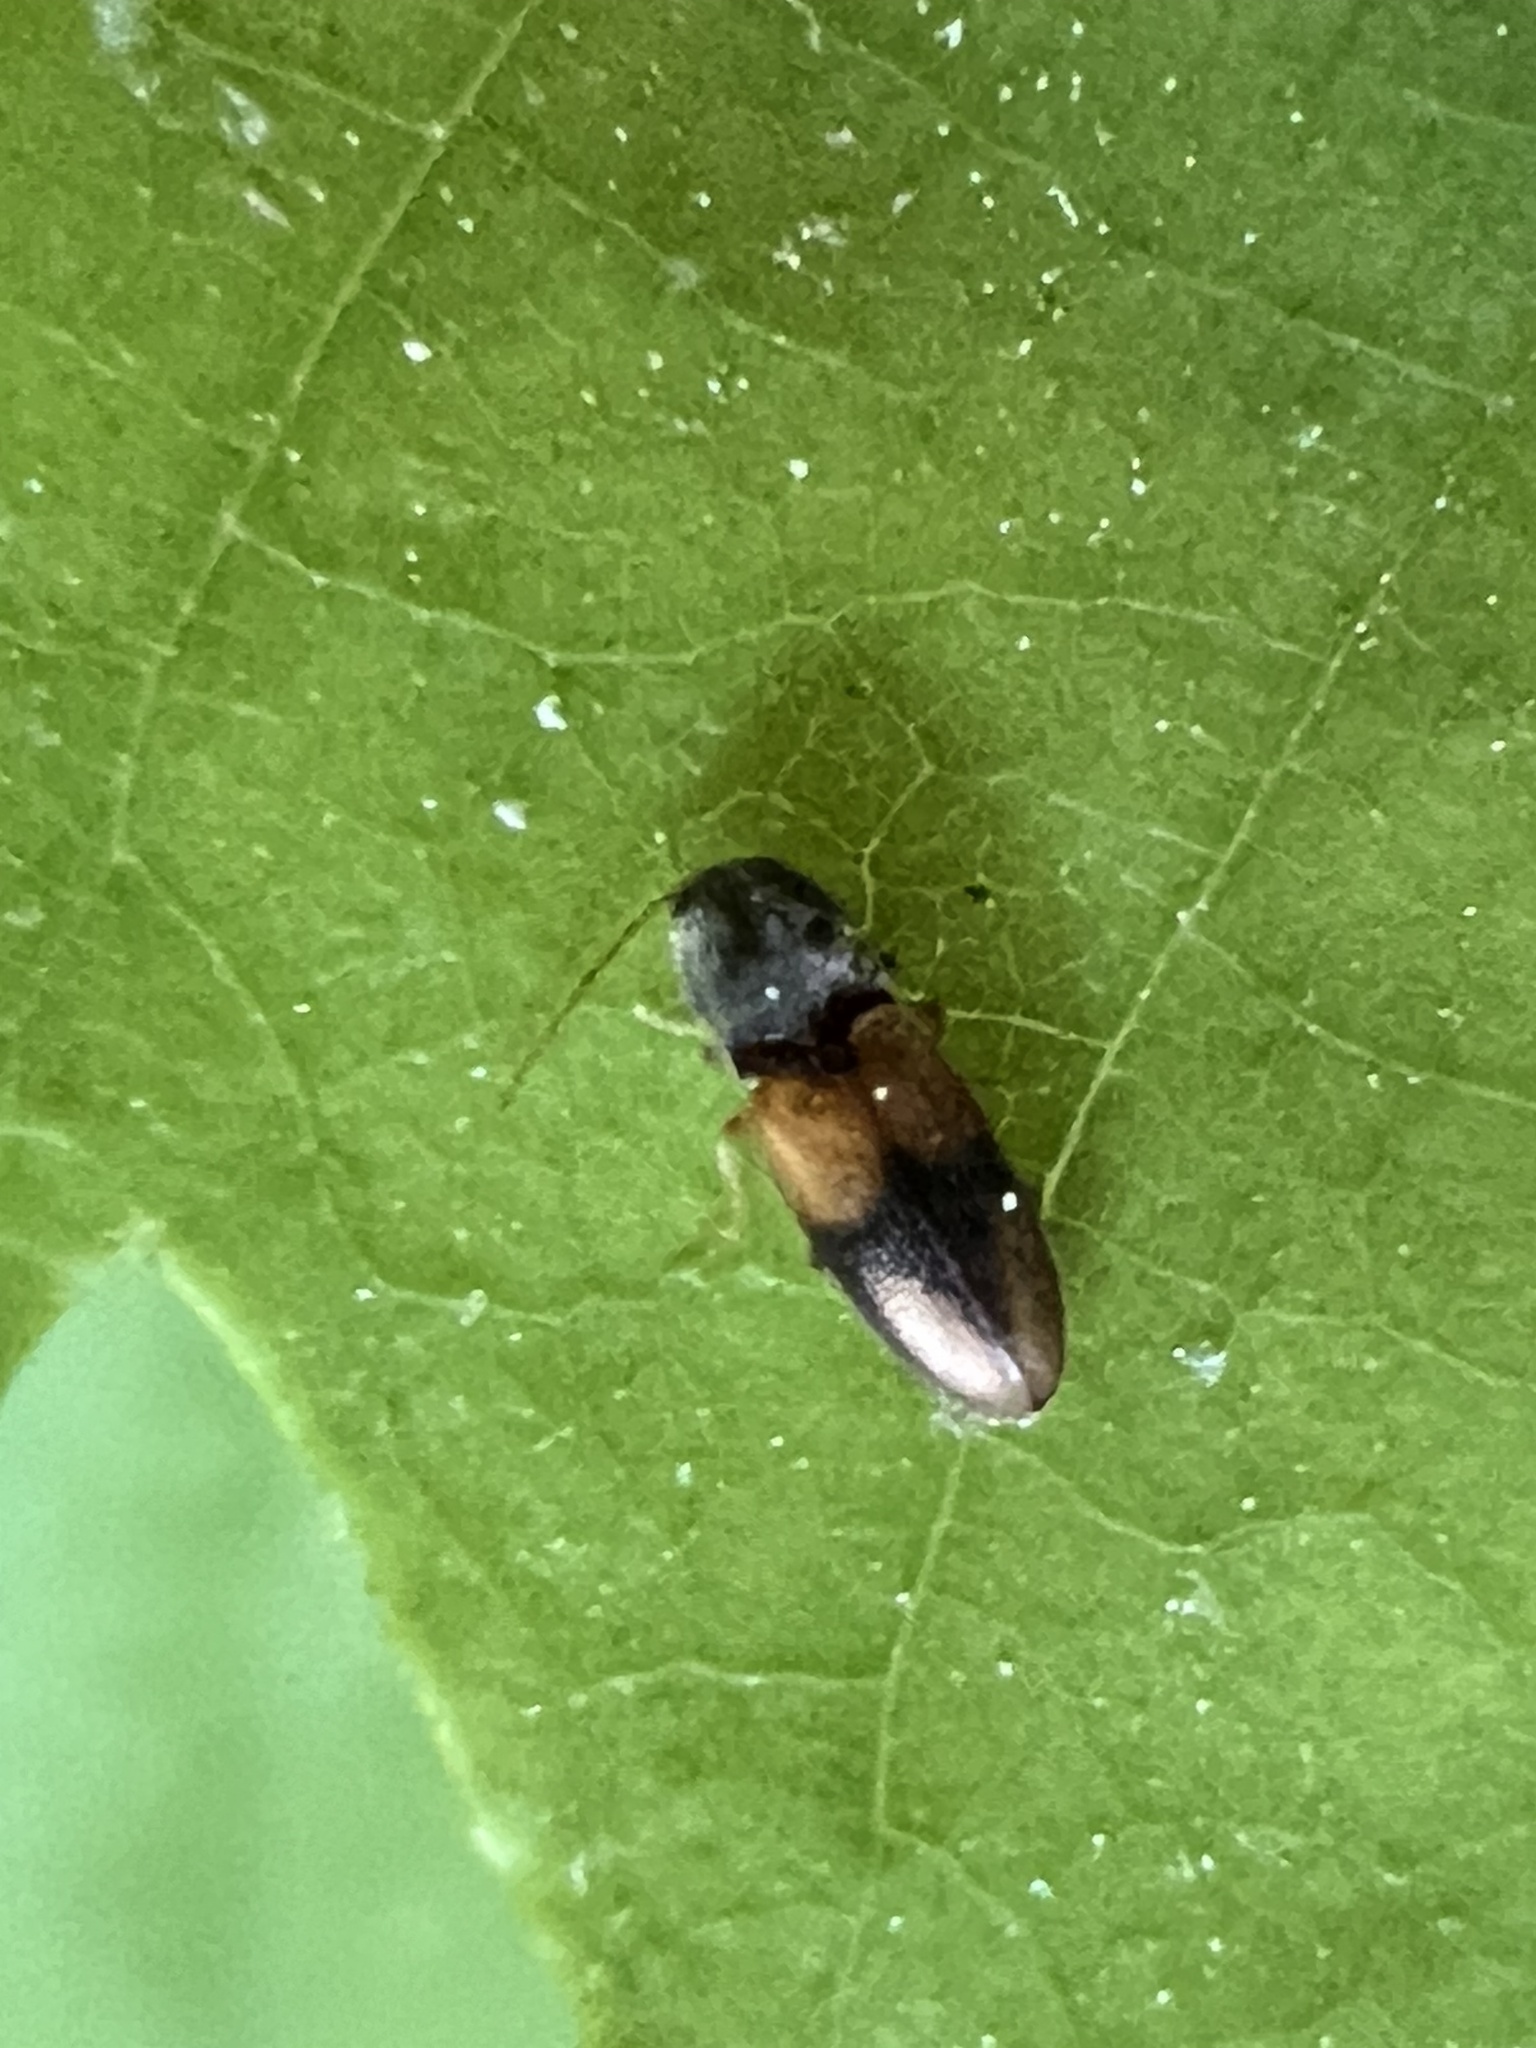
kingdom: Animalia
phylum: Arthropoda
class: Insecta
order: Coleoptera
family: Elateridae
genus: Horistonotus
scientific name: Horistonotus curiatus
